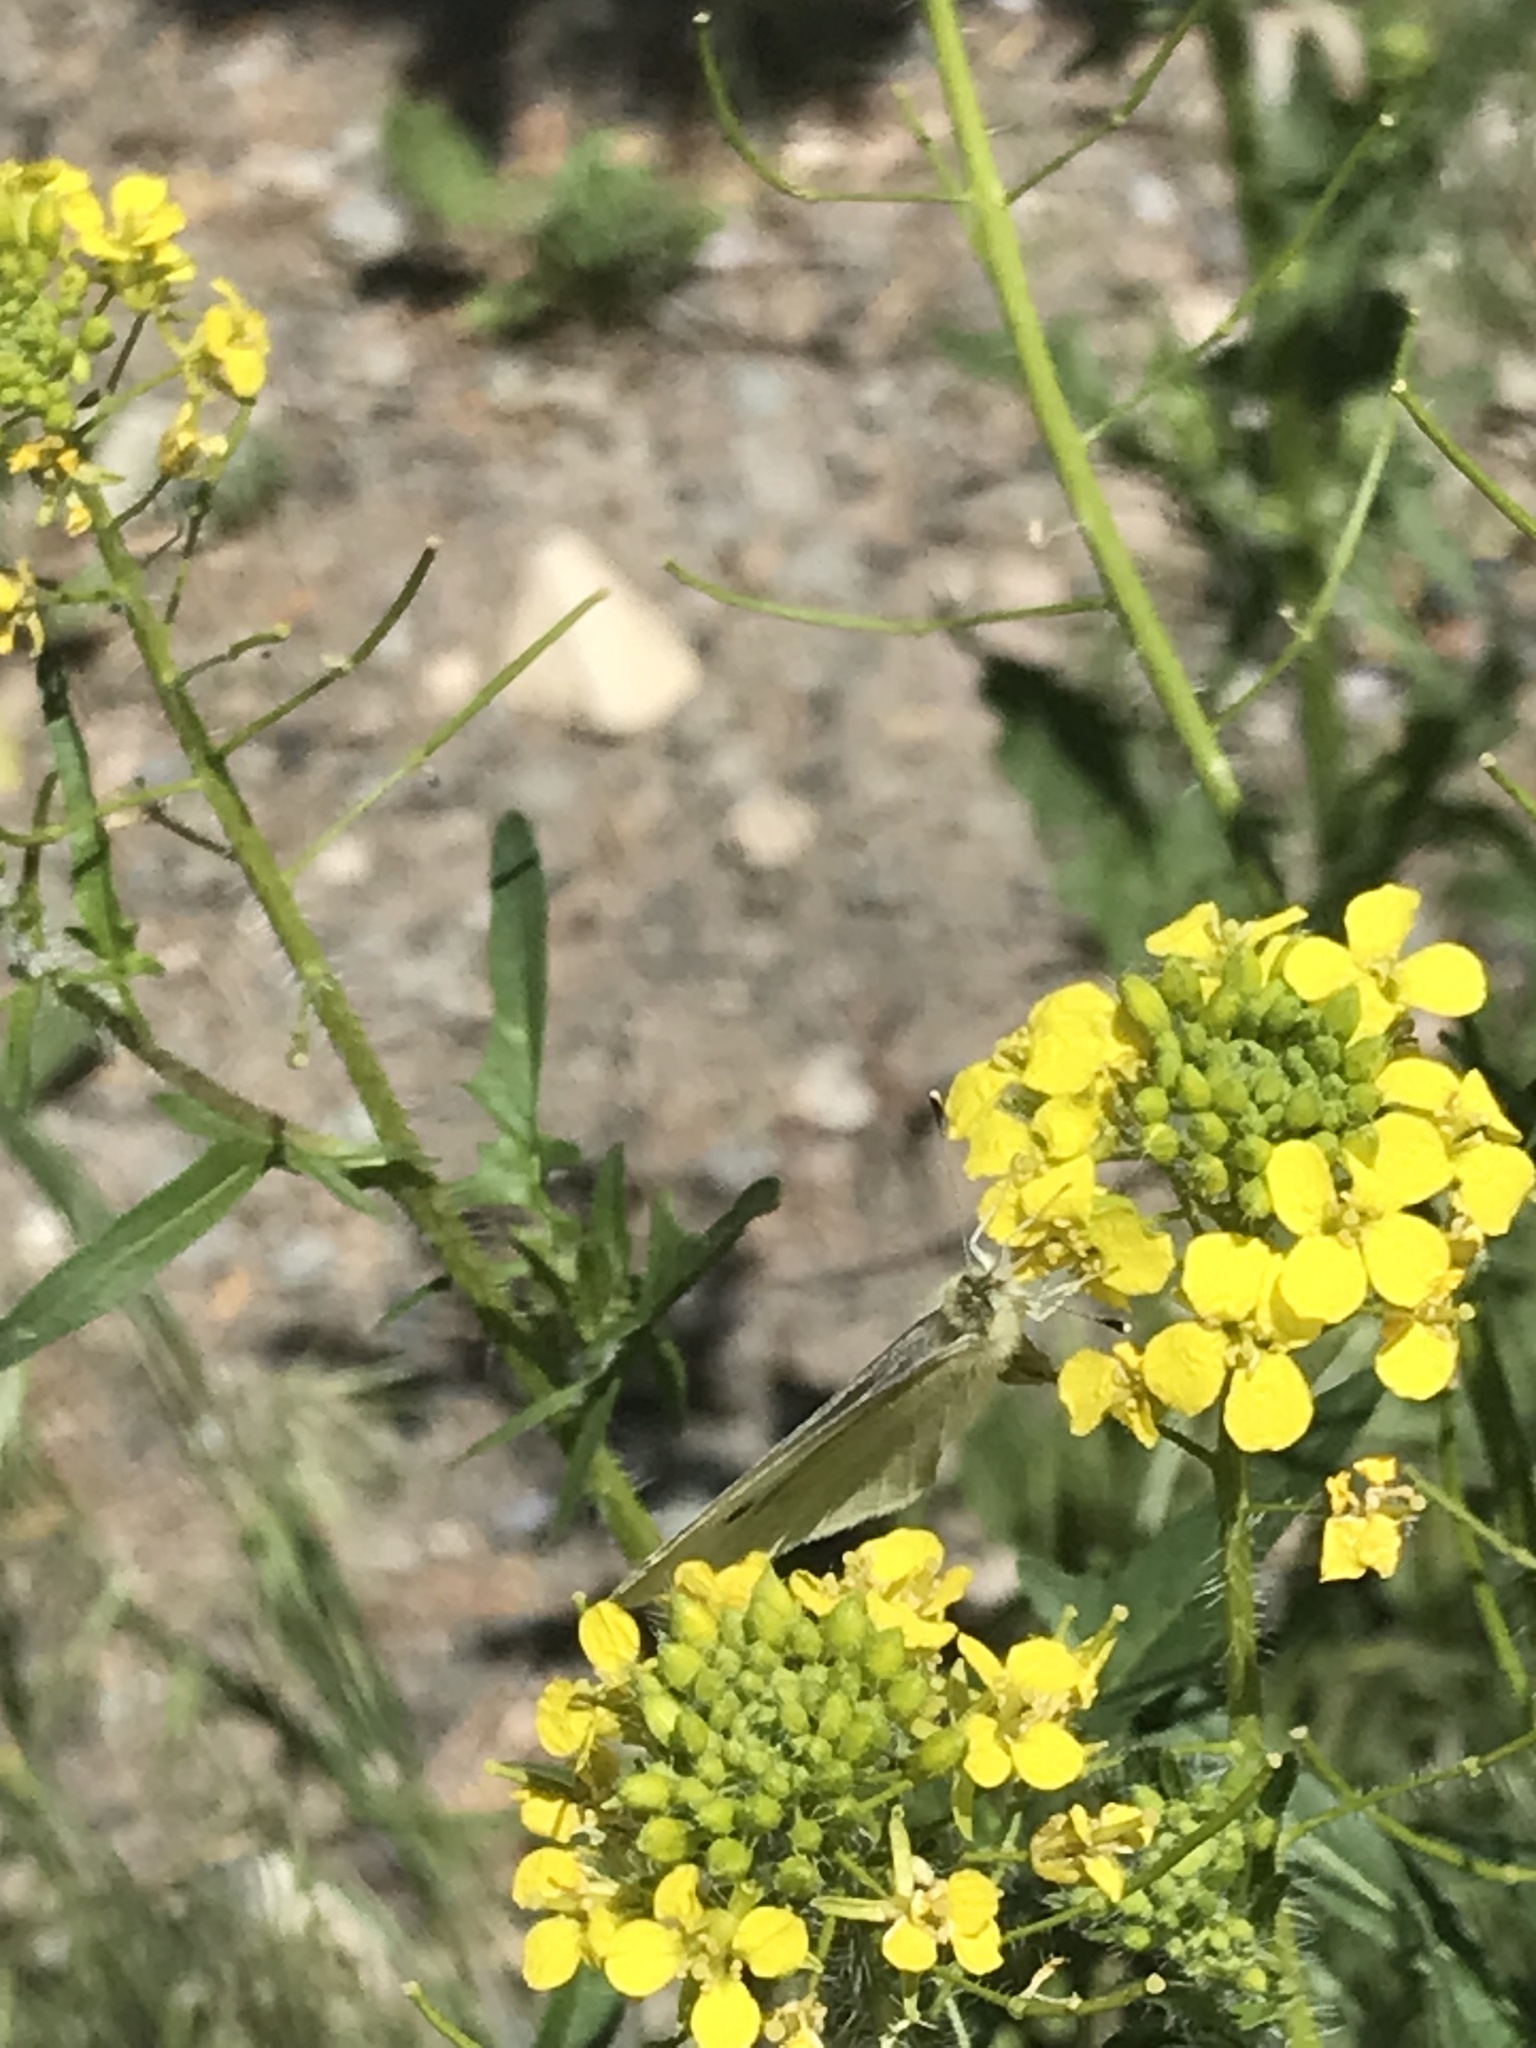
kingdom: Animalia
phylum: Arthropoda
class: Insecta
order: Lepidoptera
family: Pieridae
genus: Pieris
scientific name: Pieris rapae
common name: Small white
